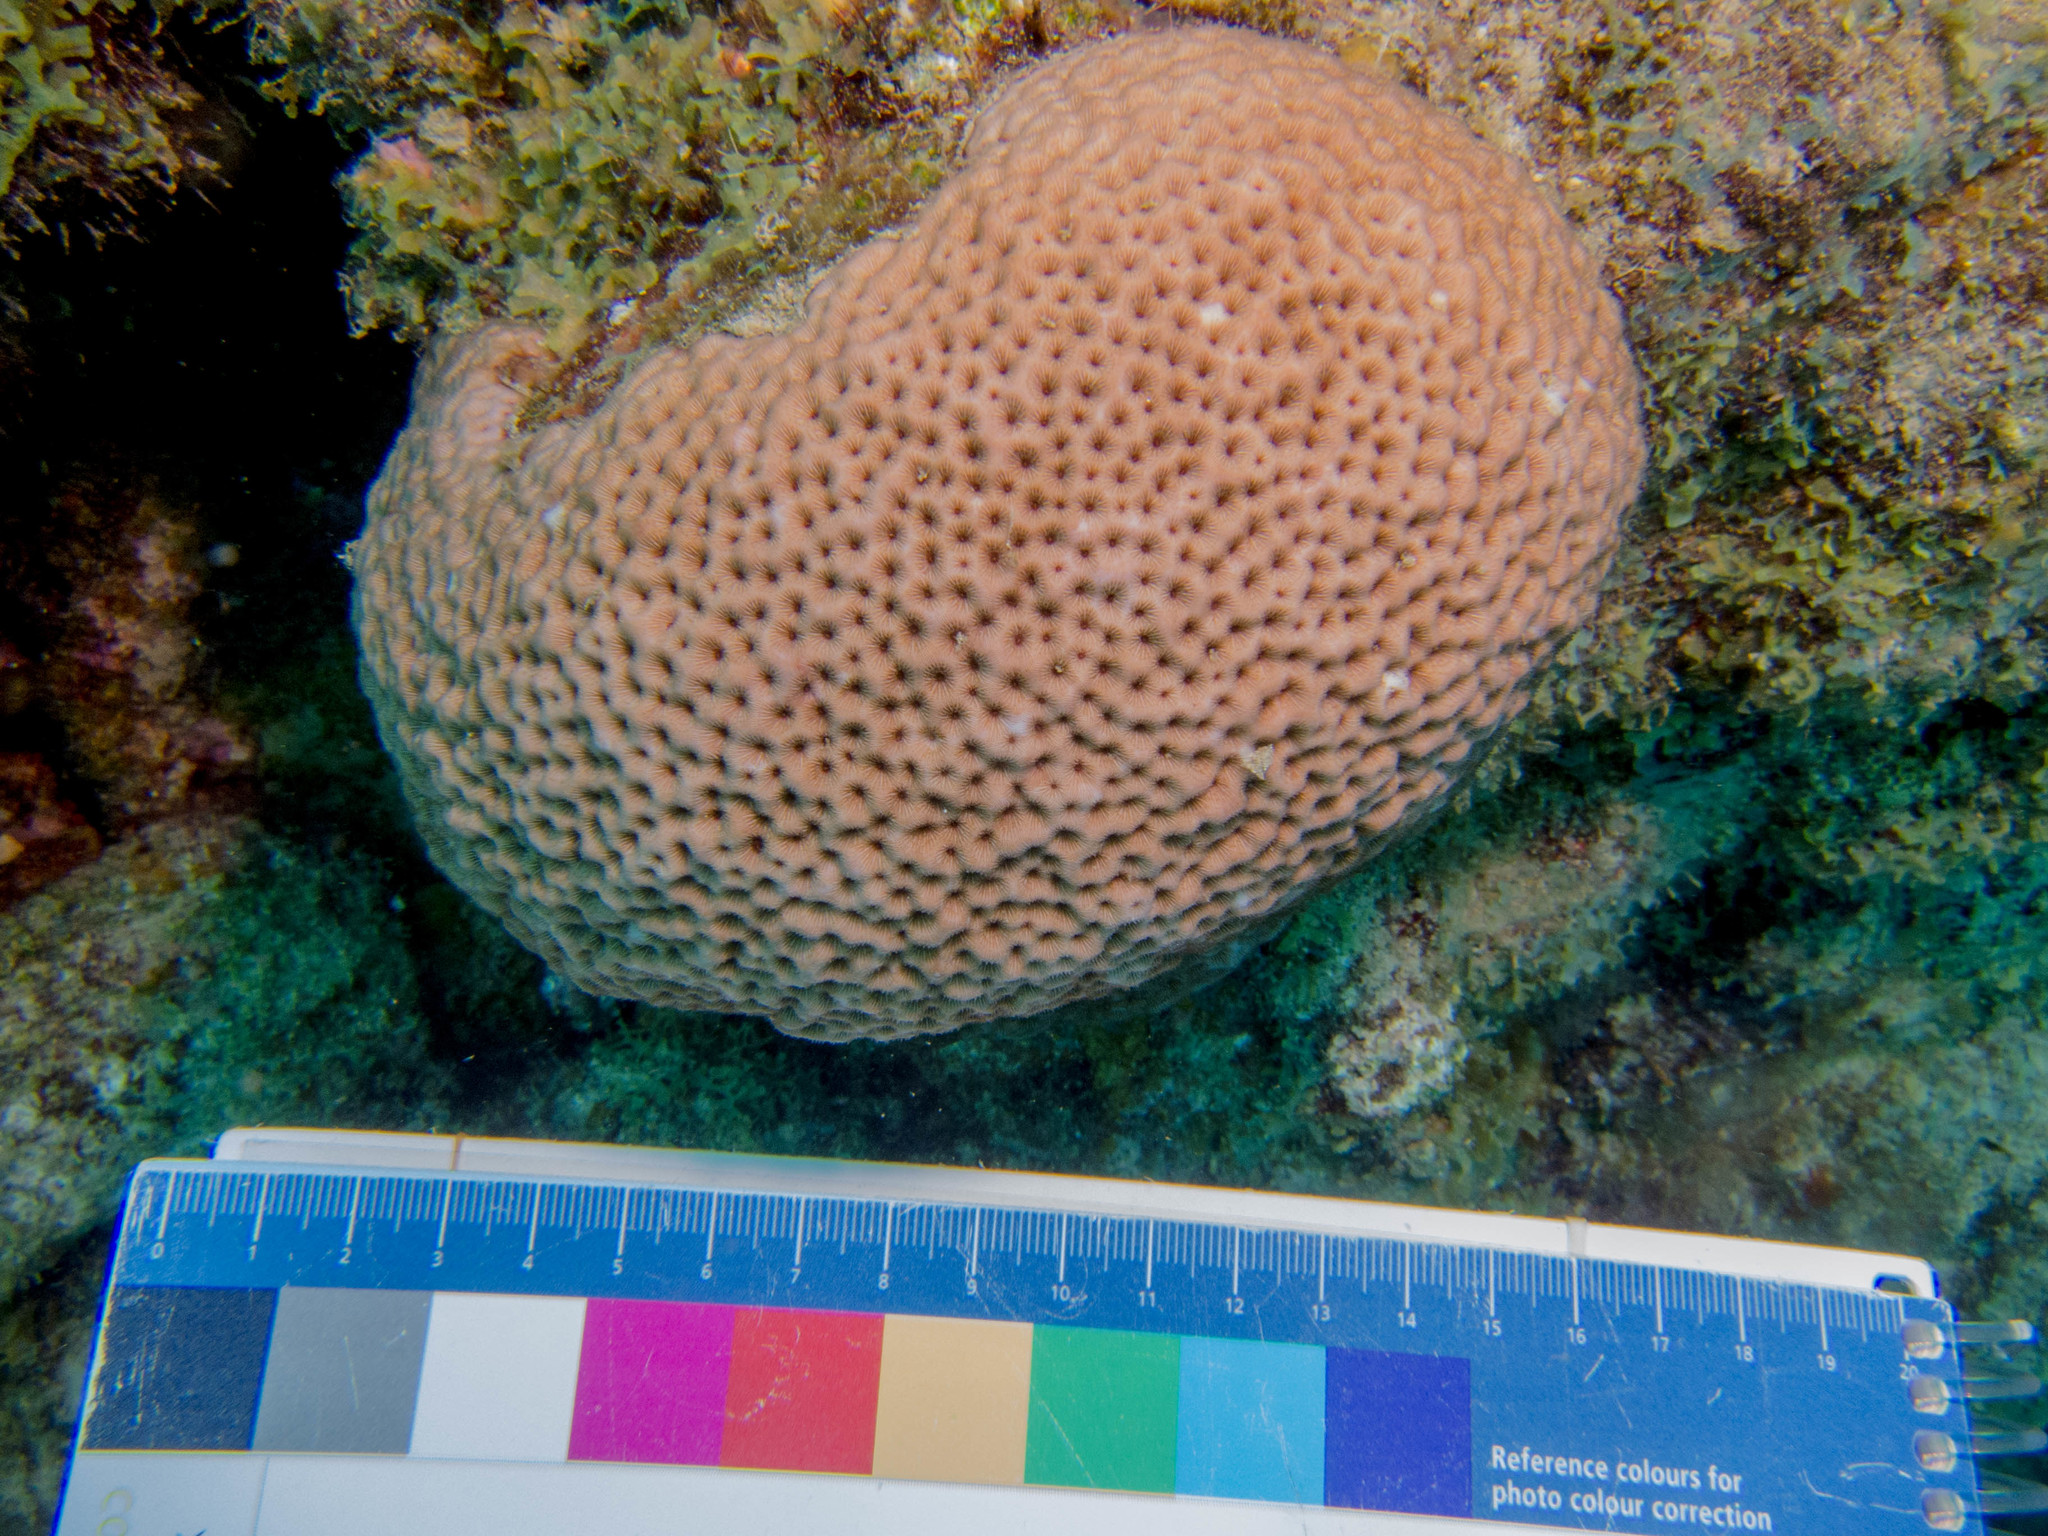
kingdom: Animalia
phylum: Cnidaria
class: Anthozoa
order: Scleractinia
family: Rhizangiidae
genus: Siderastrea
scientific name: Siderastrea siderea
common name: Massive starlet coral
